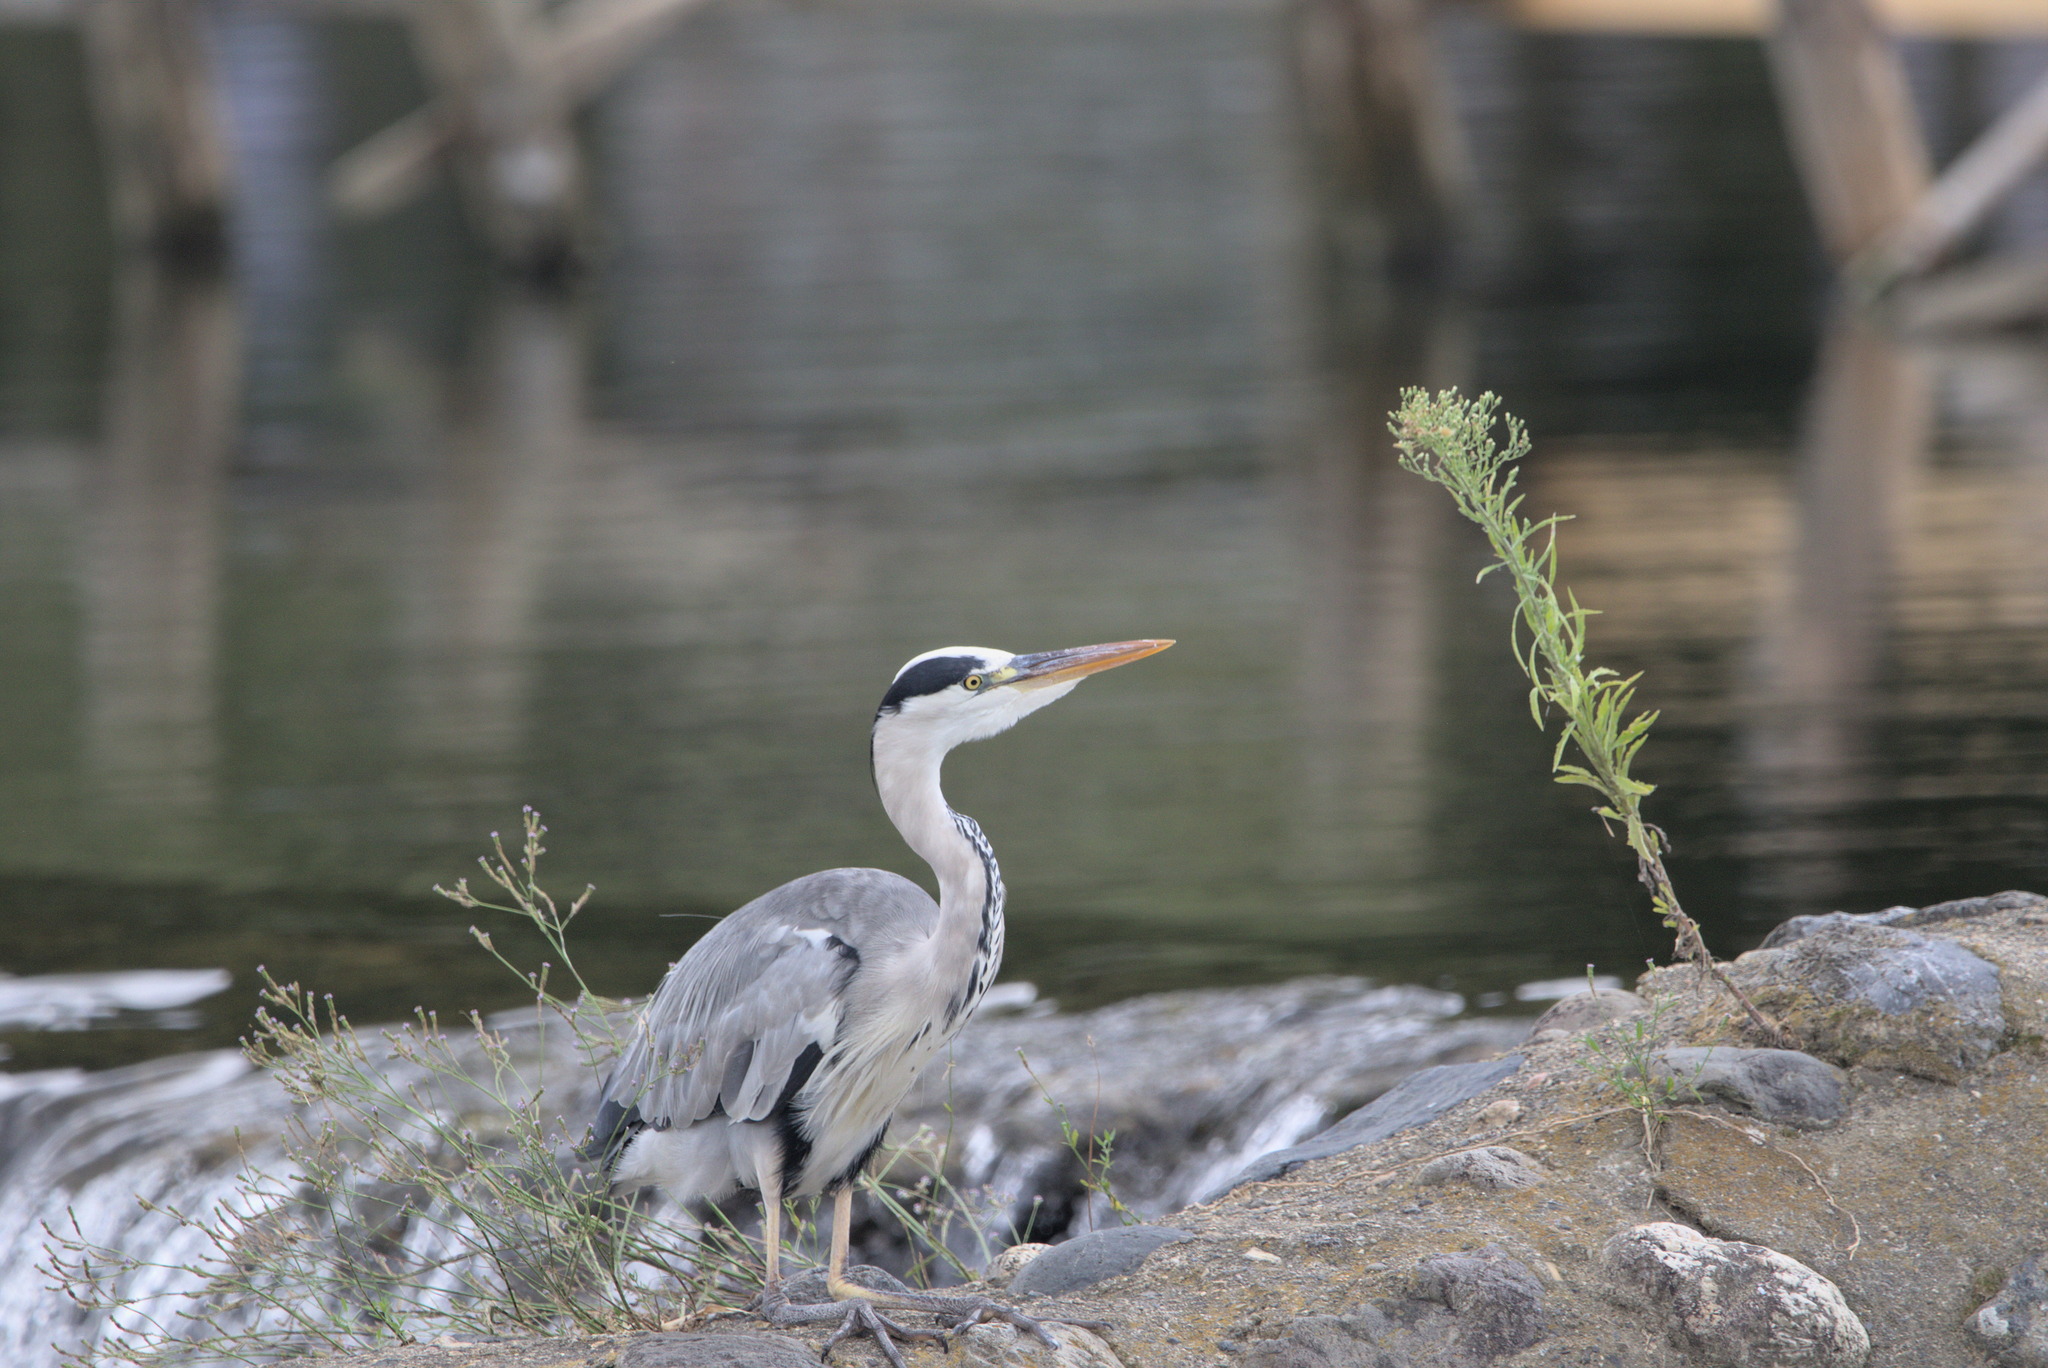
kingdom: Animalia
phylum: Chordata
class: Aves
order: Pelecaniformes
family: Ardeidae
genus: Ardea
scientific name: Ardea cinerea
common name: Grey heron
